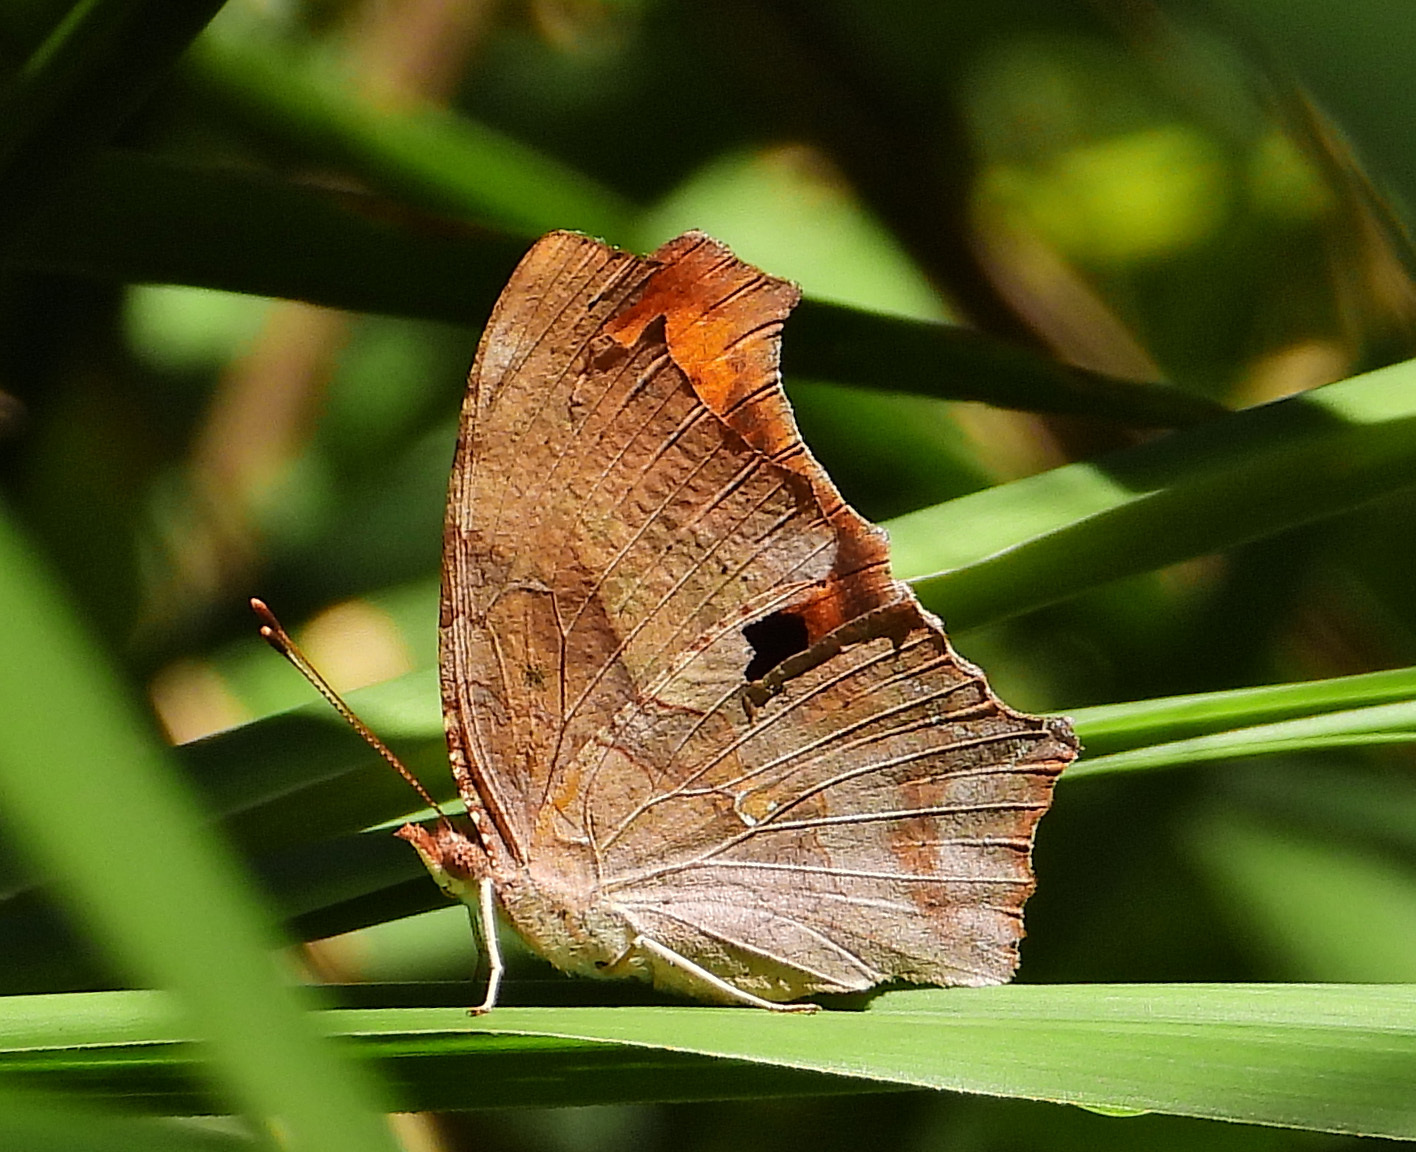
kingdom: Animalia
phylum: Arthropoda
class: Insecta
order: Lepidoptera
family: Nymphalidae
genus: Polygonia
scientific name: Polygonia interrogationis
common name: Question mark
